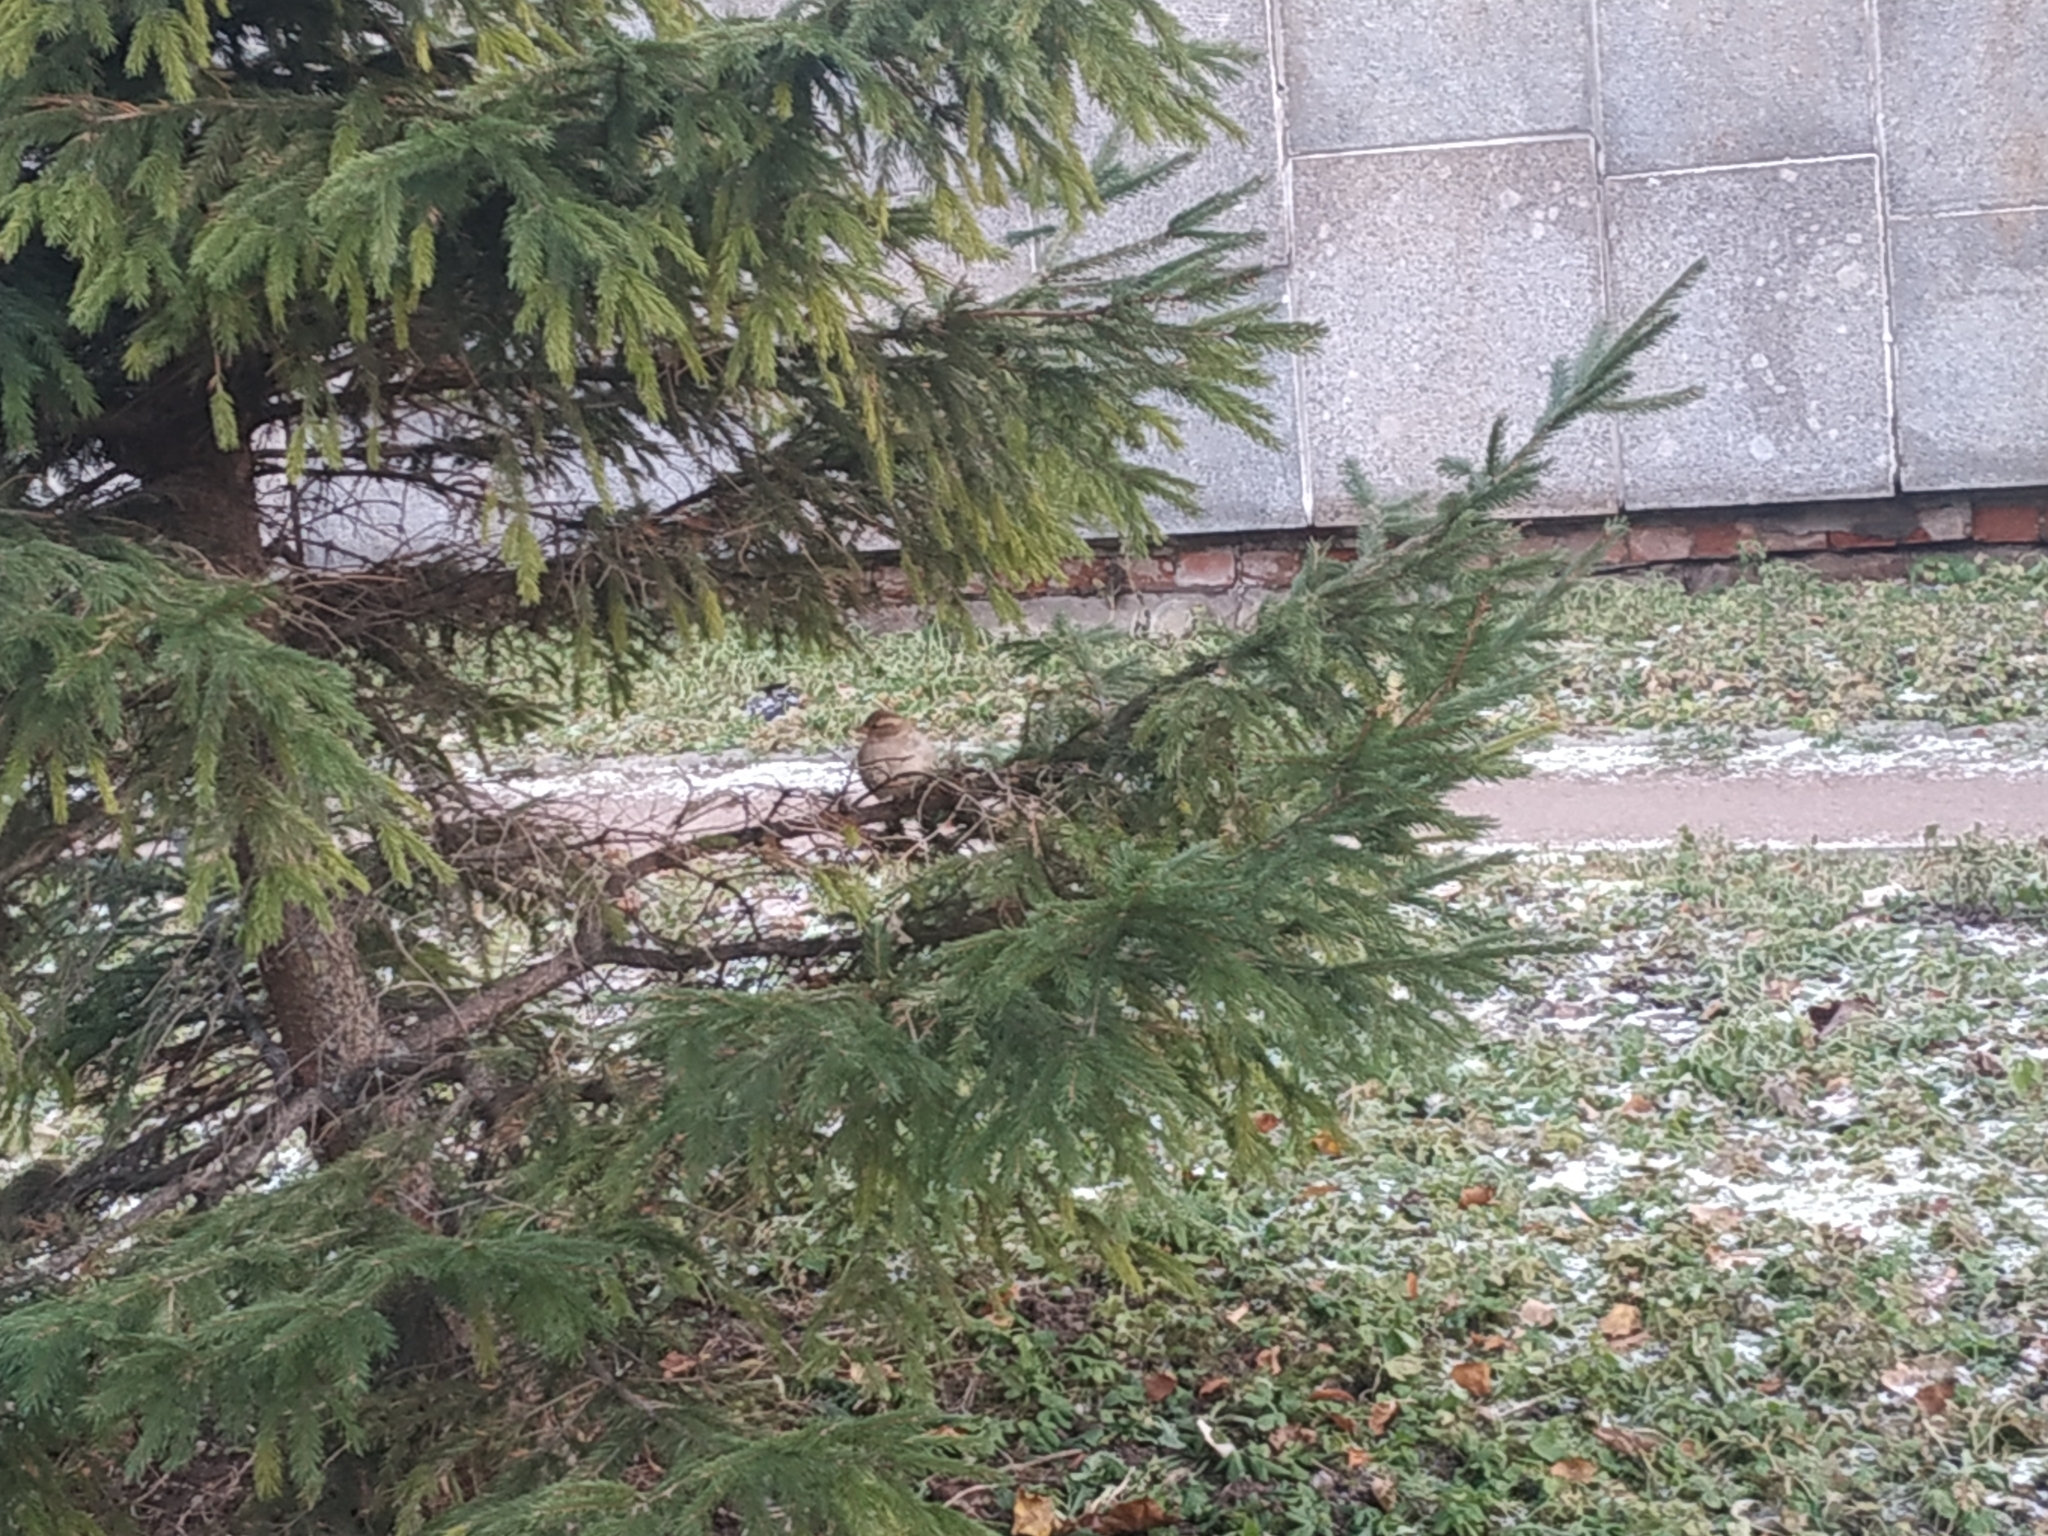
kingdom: Animalia
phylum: Chordata
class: Aves
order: Passeriformes
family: Passeridae
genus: Passer
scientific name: Passer domesticus
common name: House sparrow
